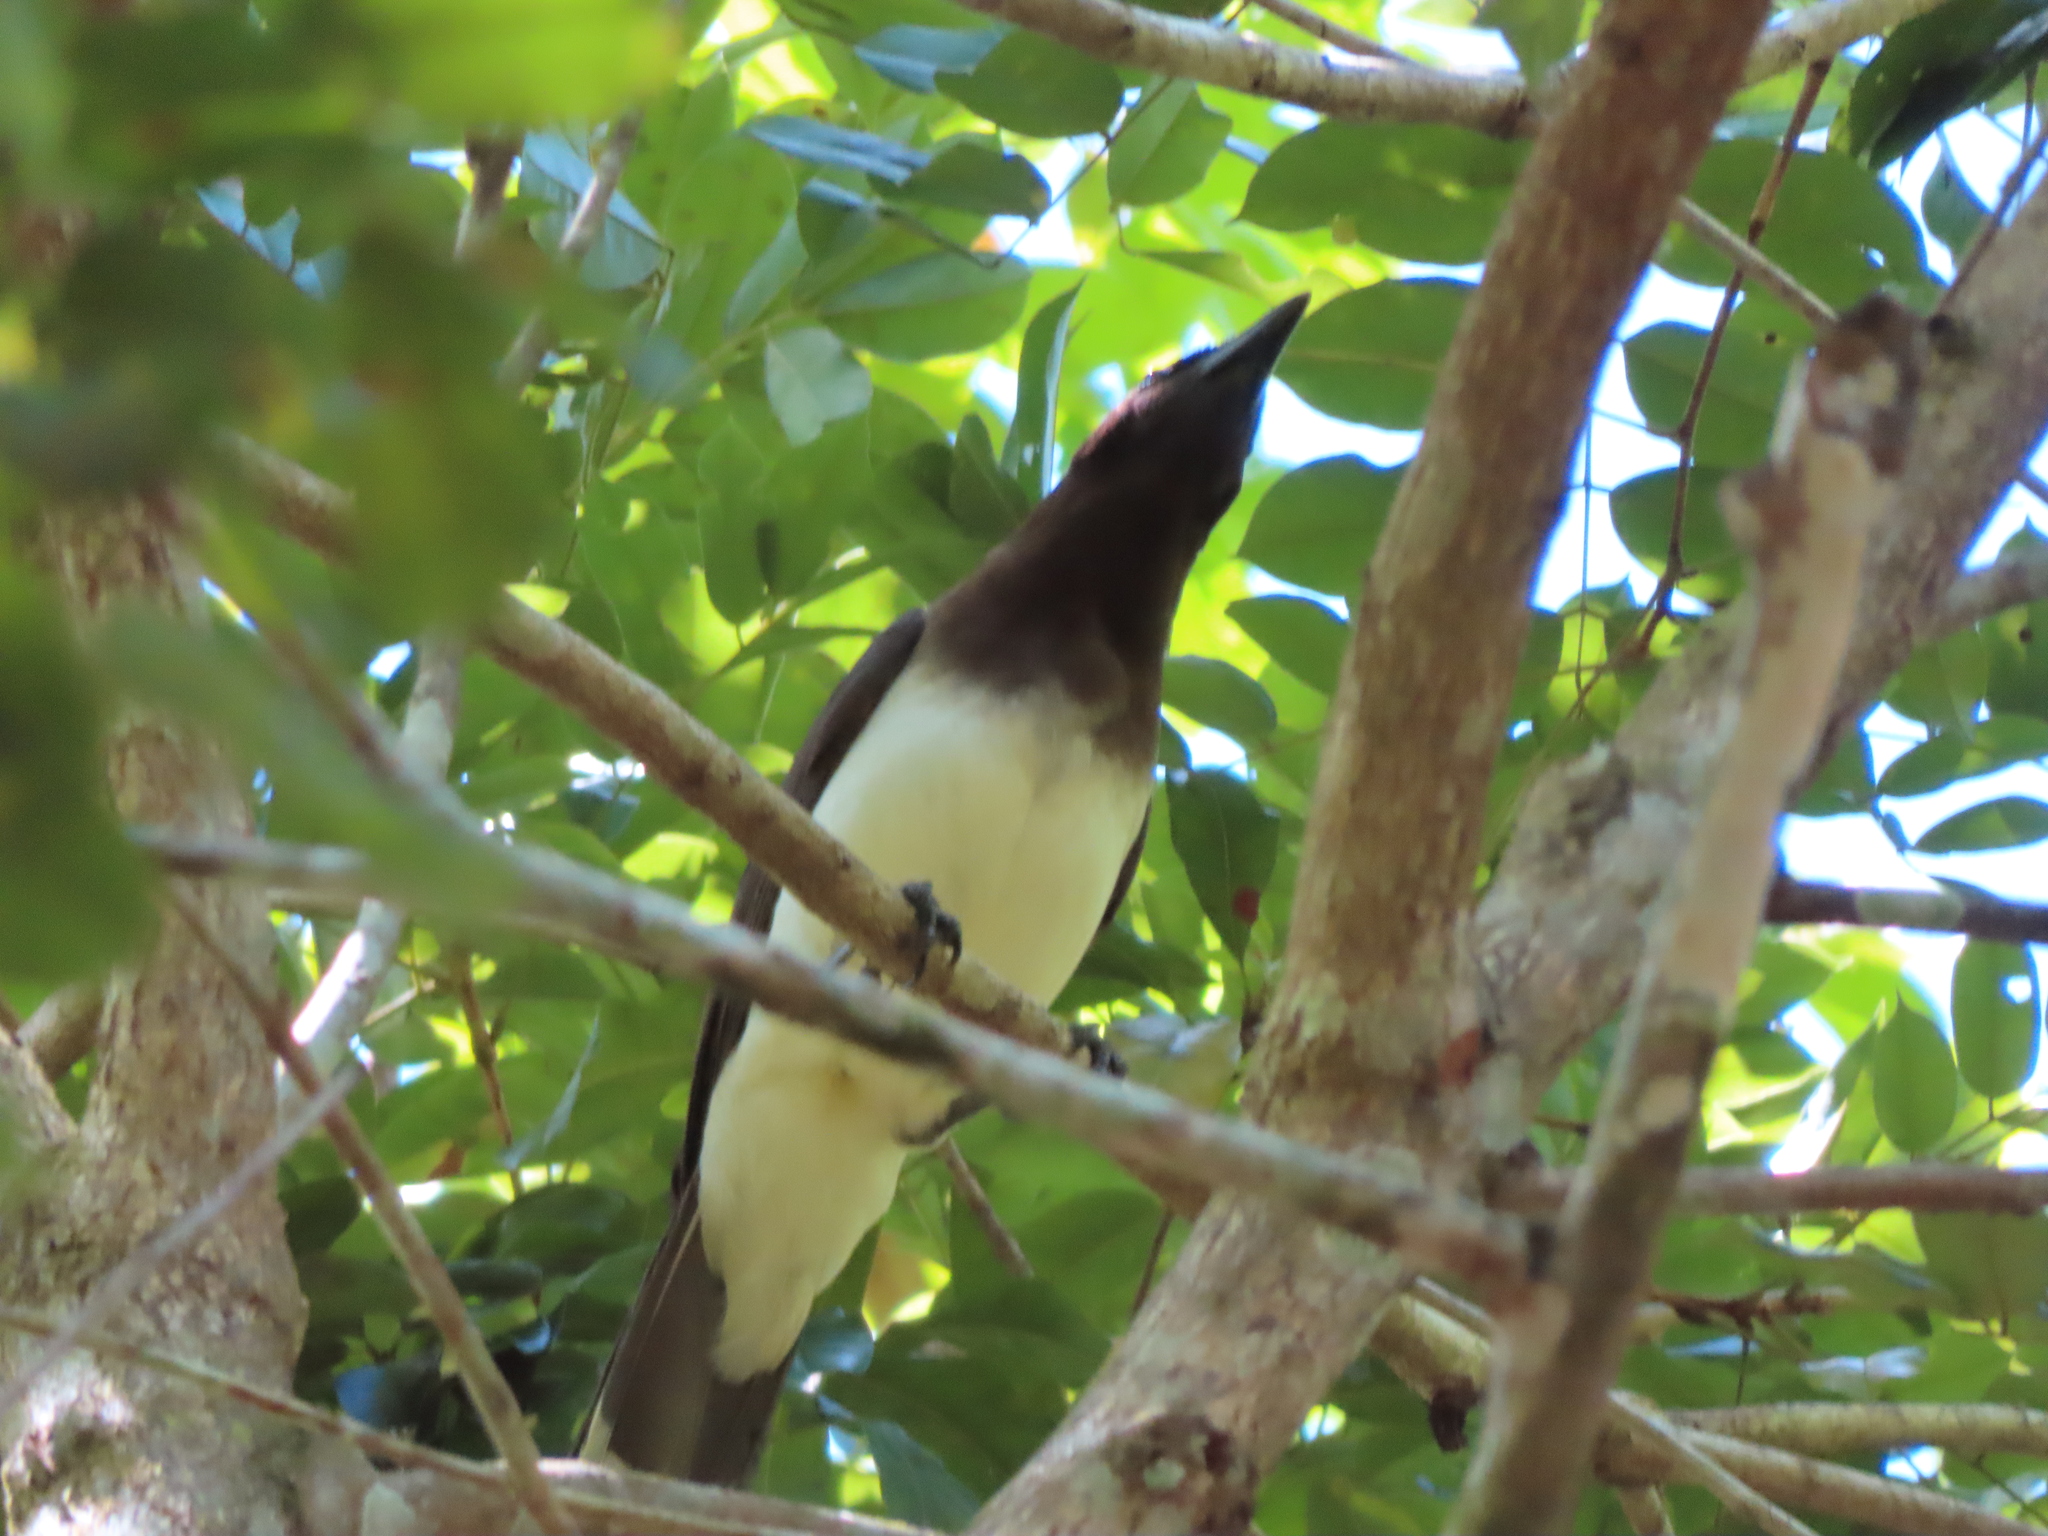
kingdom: Animalia
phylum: Chordata
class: Aves
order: Passeriformes
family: Corvidae
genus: Psilorhinus
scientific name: Psilorhinus morio
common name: Brown jay
